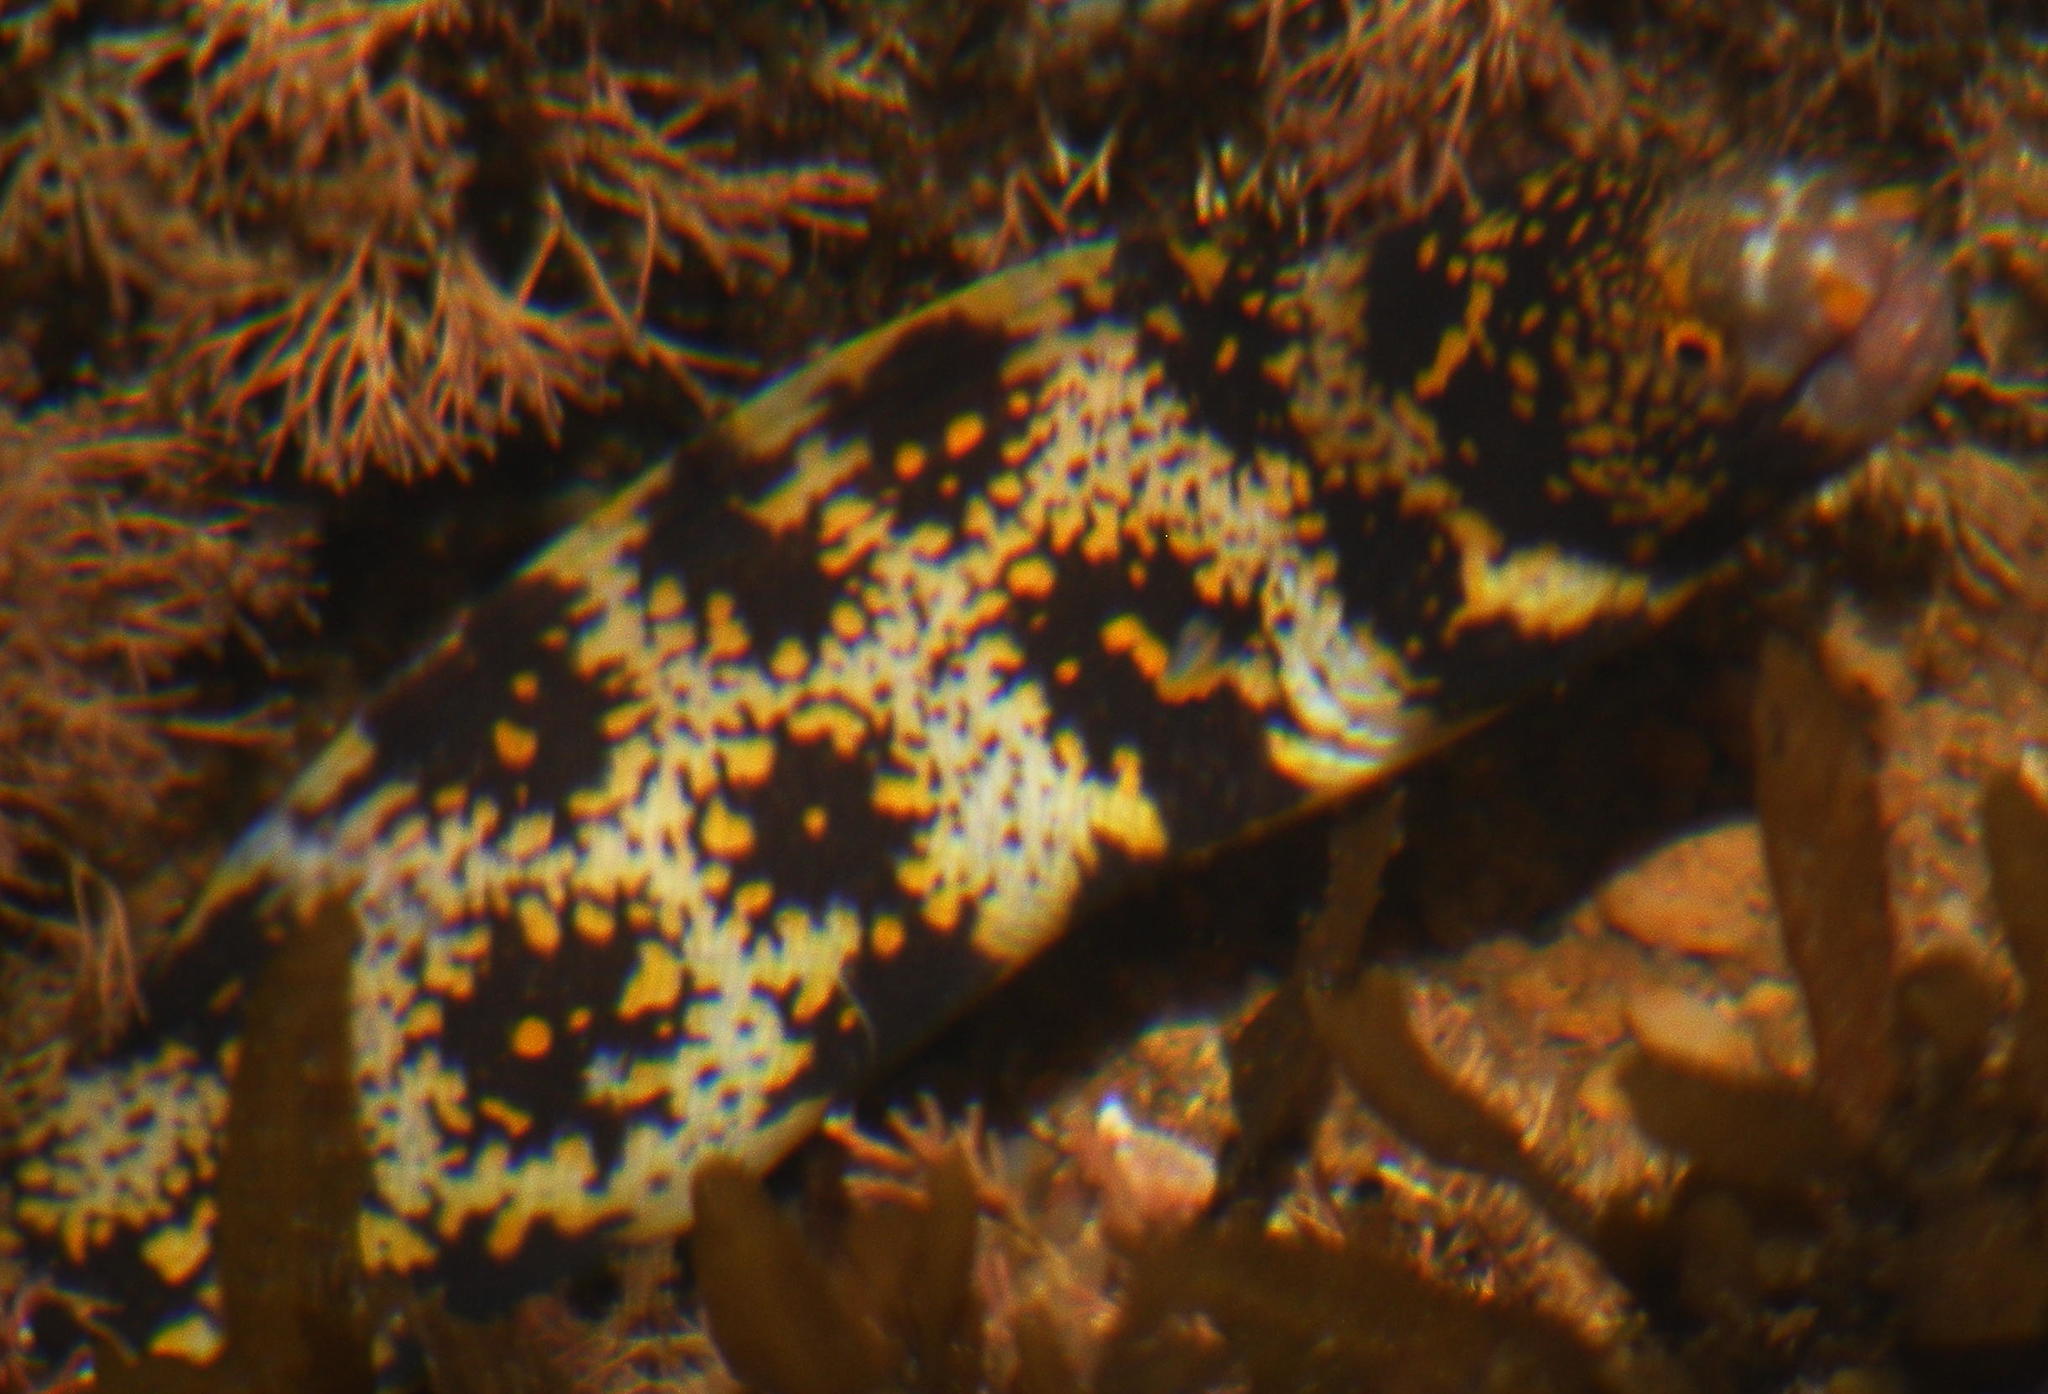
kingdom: Animalia
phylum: Chordata
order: Anguilliformes
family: Muraenidae
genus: Echidna
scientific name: Echidna nebulosa
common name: Snowflake moray
